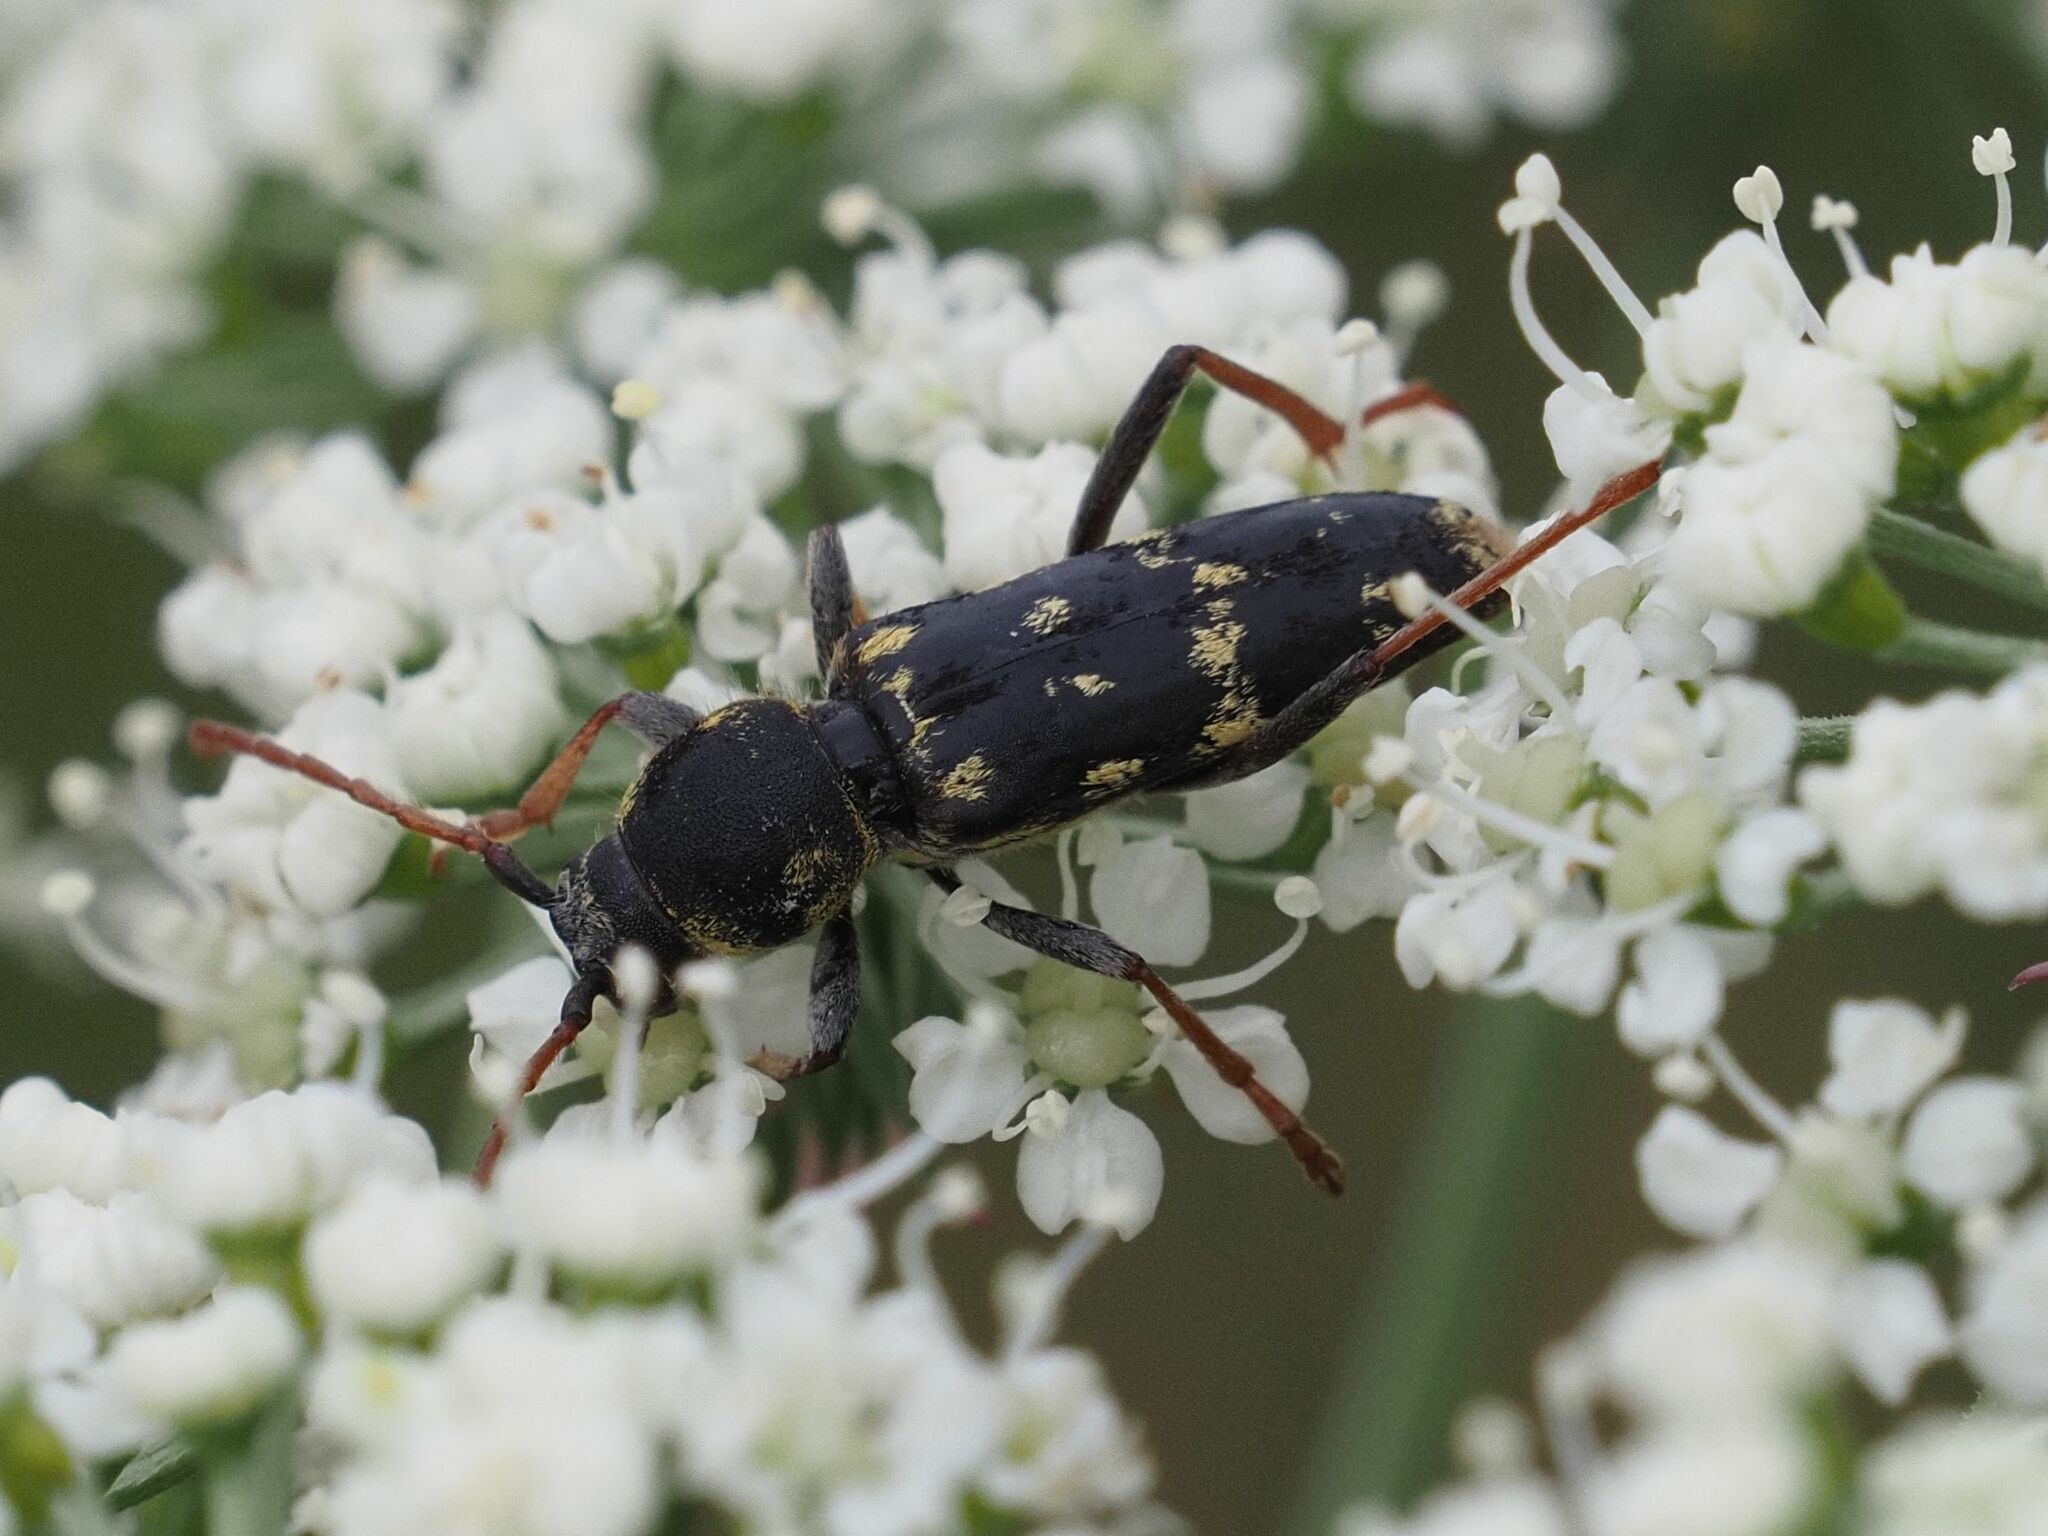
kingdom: Animalia
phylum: Arthropoda
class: Insecta
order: Coleoptera
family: Cerambycidae
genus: Plagionotus
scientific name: Plagionotus floralis
